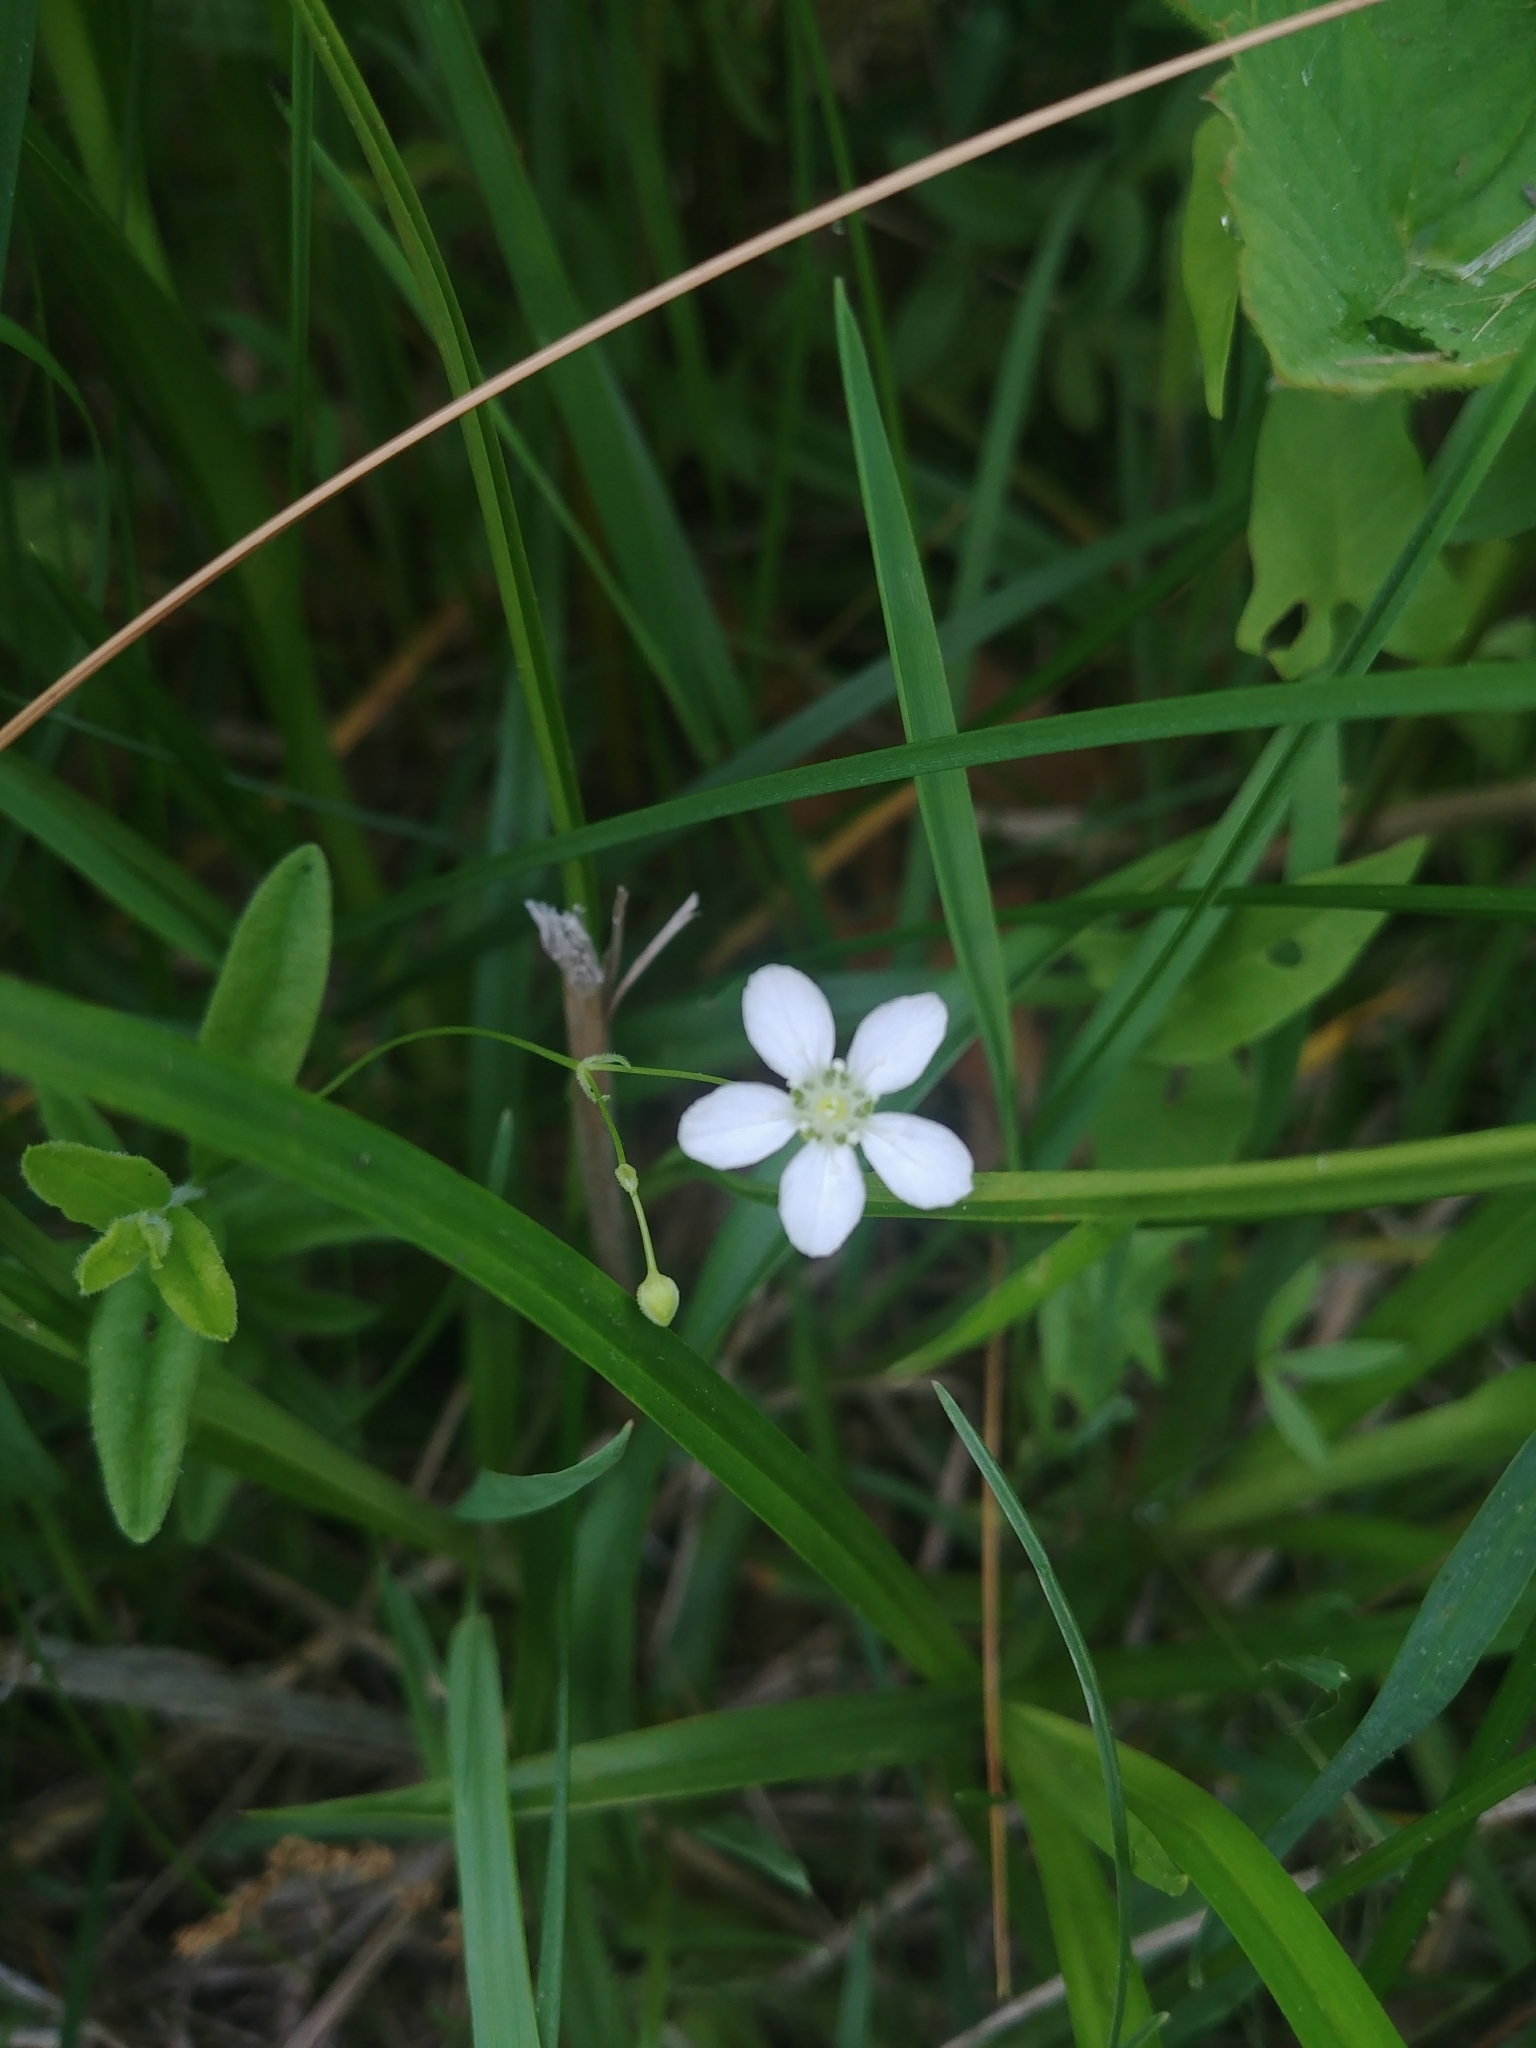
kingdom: Plantae
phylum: Tracheophyta
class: Magnoliopsida
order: Caryophyllales
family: Caryophyllaceae
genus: Moehringia
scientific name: Moehringia lateriflora
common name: Blunt-leaved sandwort
